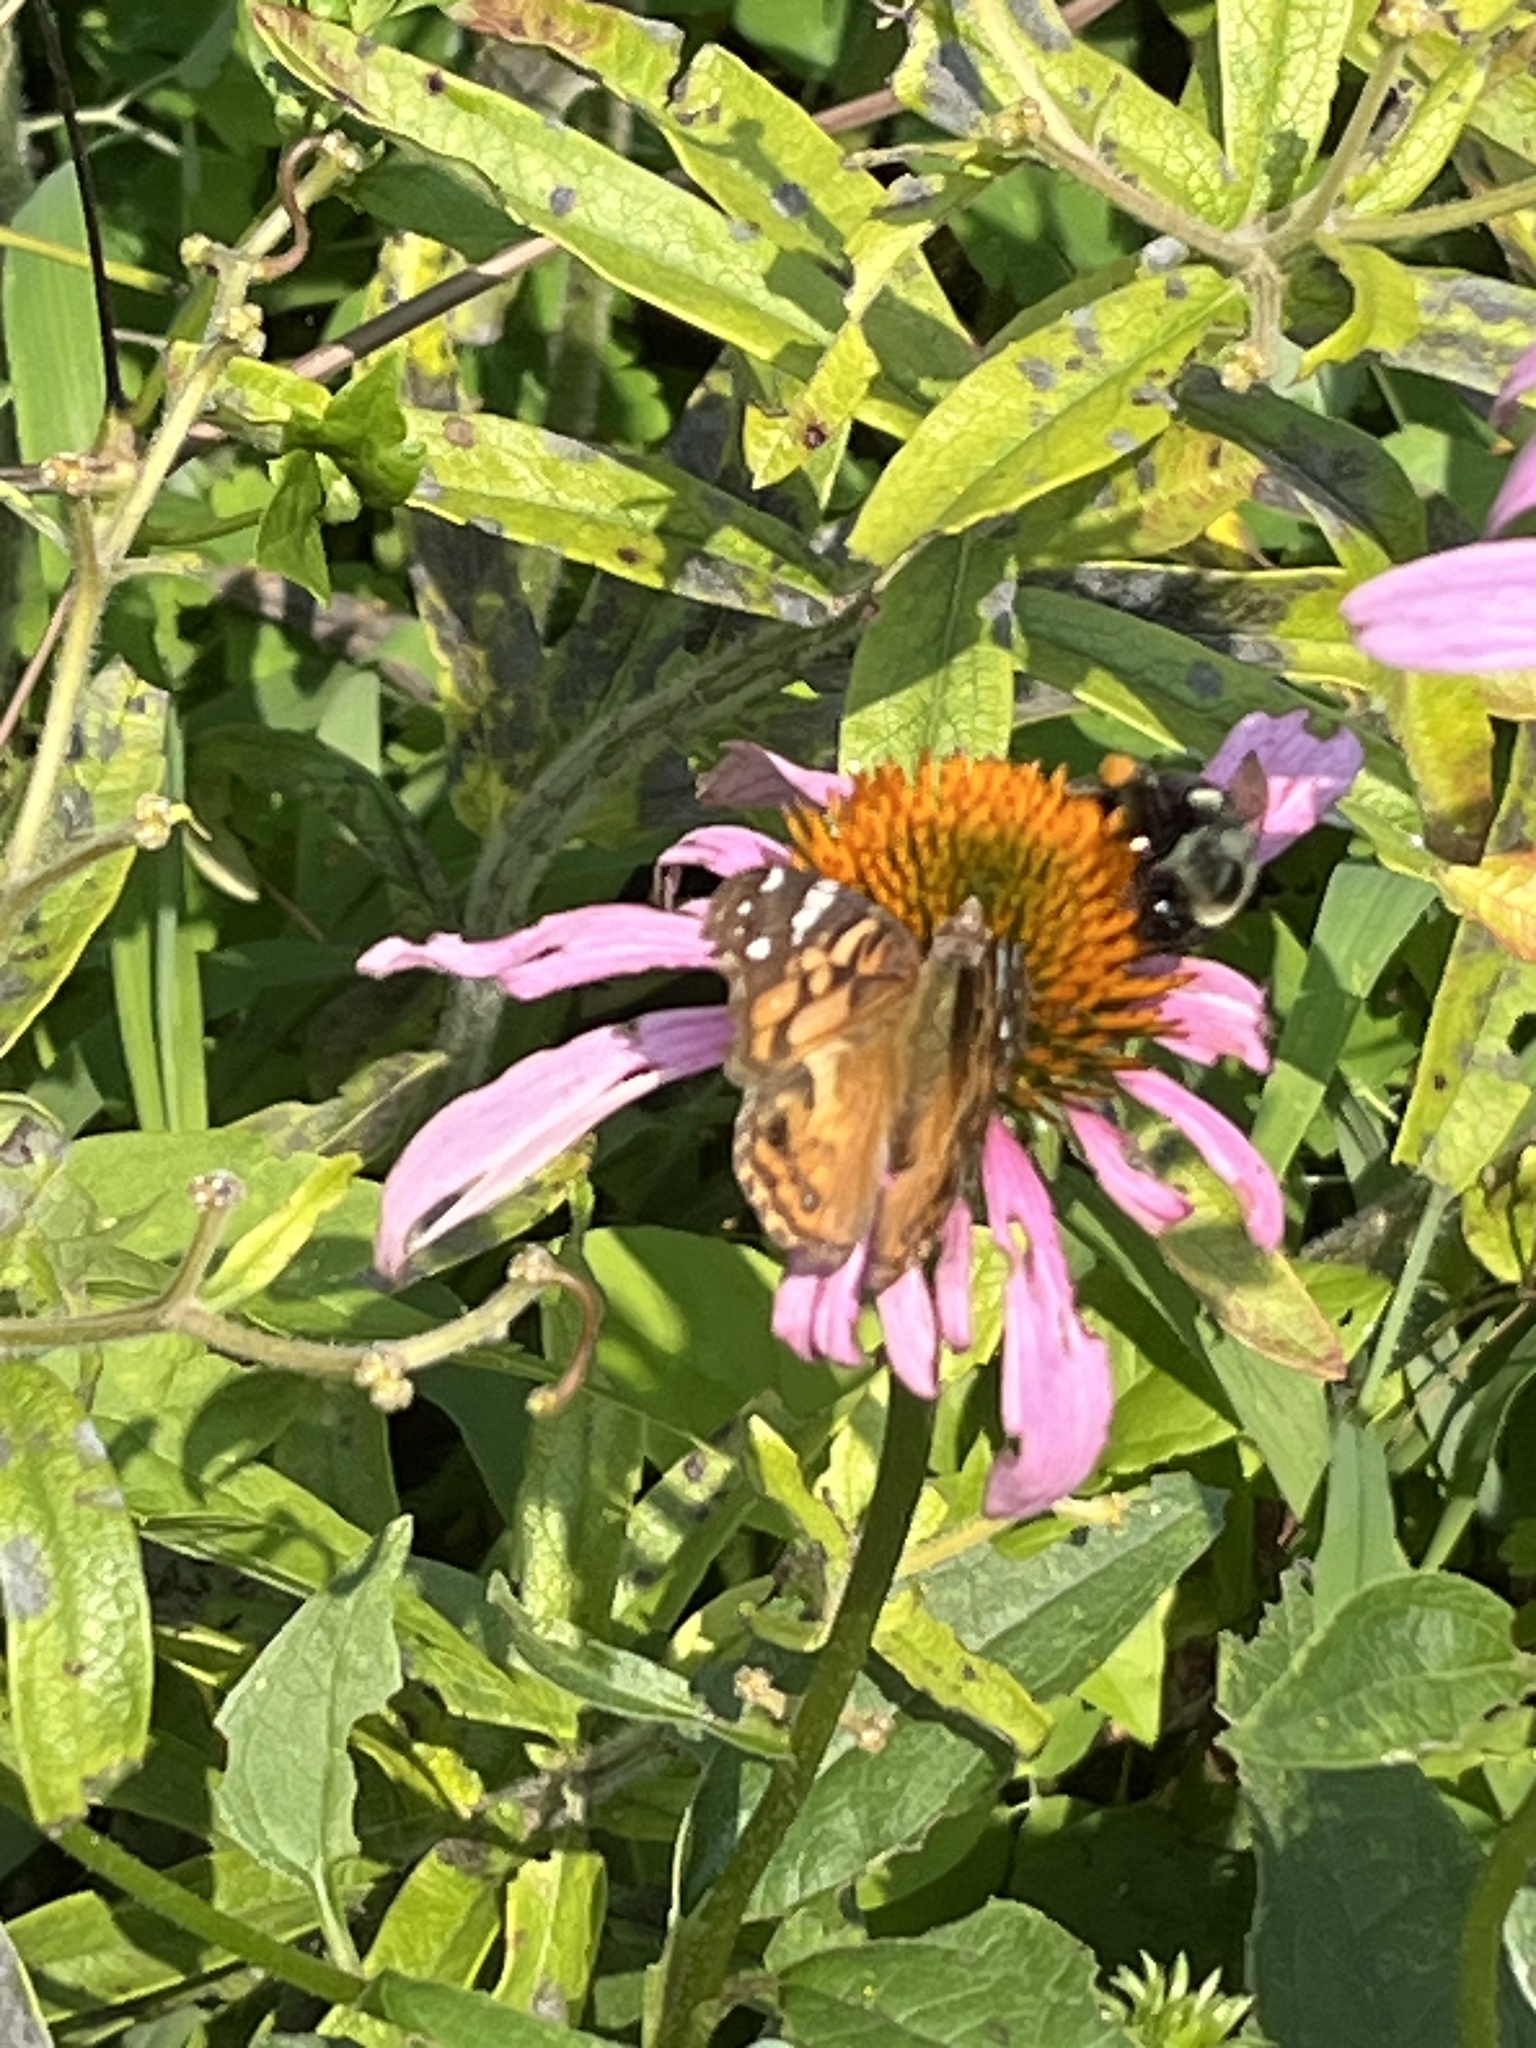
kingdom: Animalia
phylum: Arthropoda
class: Insecta
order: Lepidoptera
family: Nymphalidae
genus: Vanessa
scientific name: Vanessa virginiensis
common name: American lady
